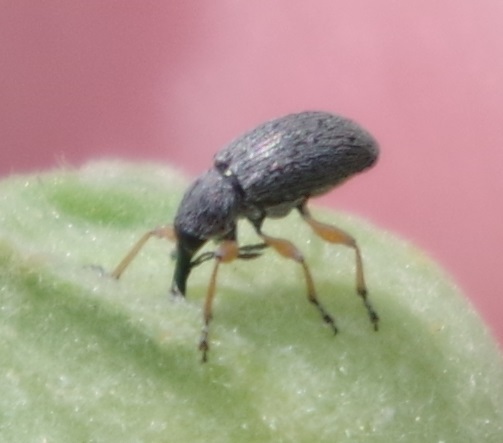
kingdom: Animalia
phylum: Arthropoda
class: Insecta
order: Coleoptera
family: Brentidae
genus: Rhopalapion
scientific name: Rhopalapion longirostre
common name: Hollyhock weevil
